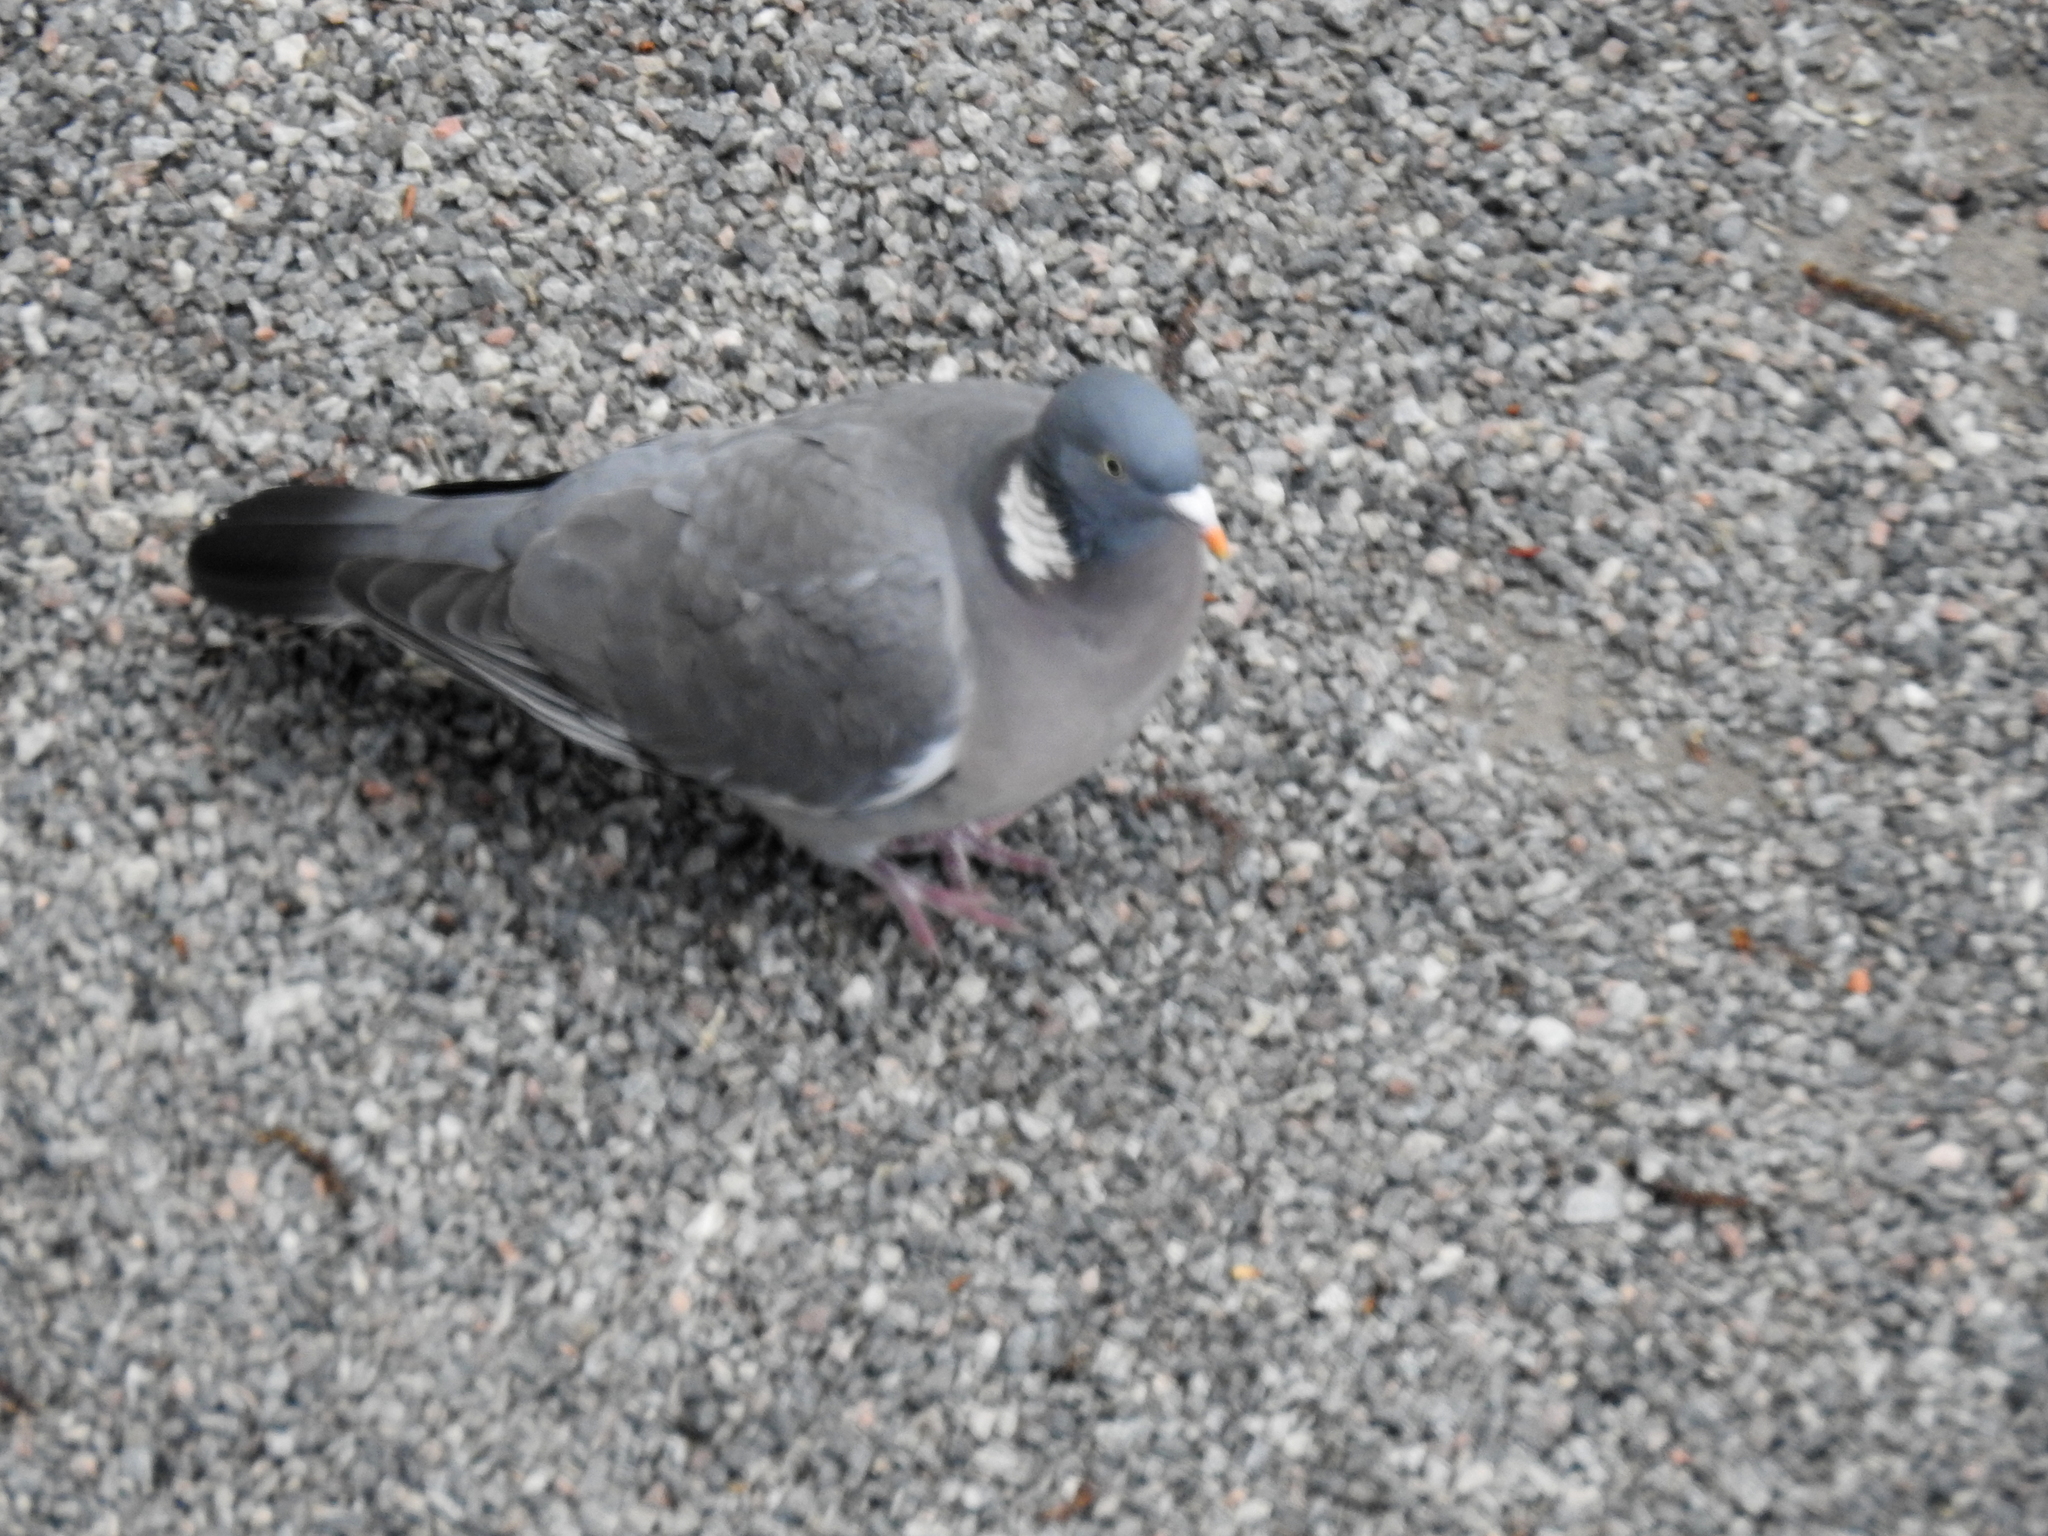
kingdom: Animalia
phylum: Chordata
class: Aves
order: Columbiformes
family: Columbidae
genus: Columba
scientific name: Columba palumbus
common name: Common wood pigeon
